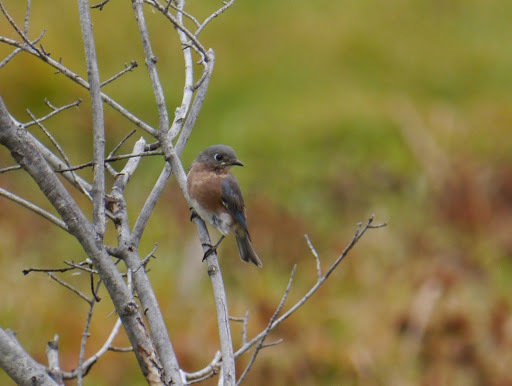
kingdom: Animalia
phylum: Chordata
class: Aves
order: Passeriformes
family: Turdidae
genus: Sialia
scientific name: Sialia sialis
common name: Eastern bluebird
